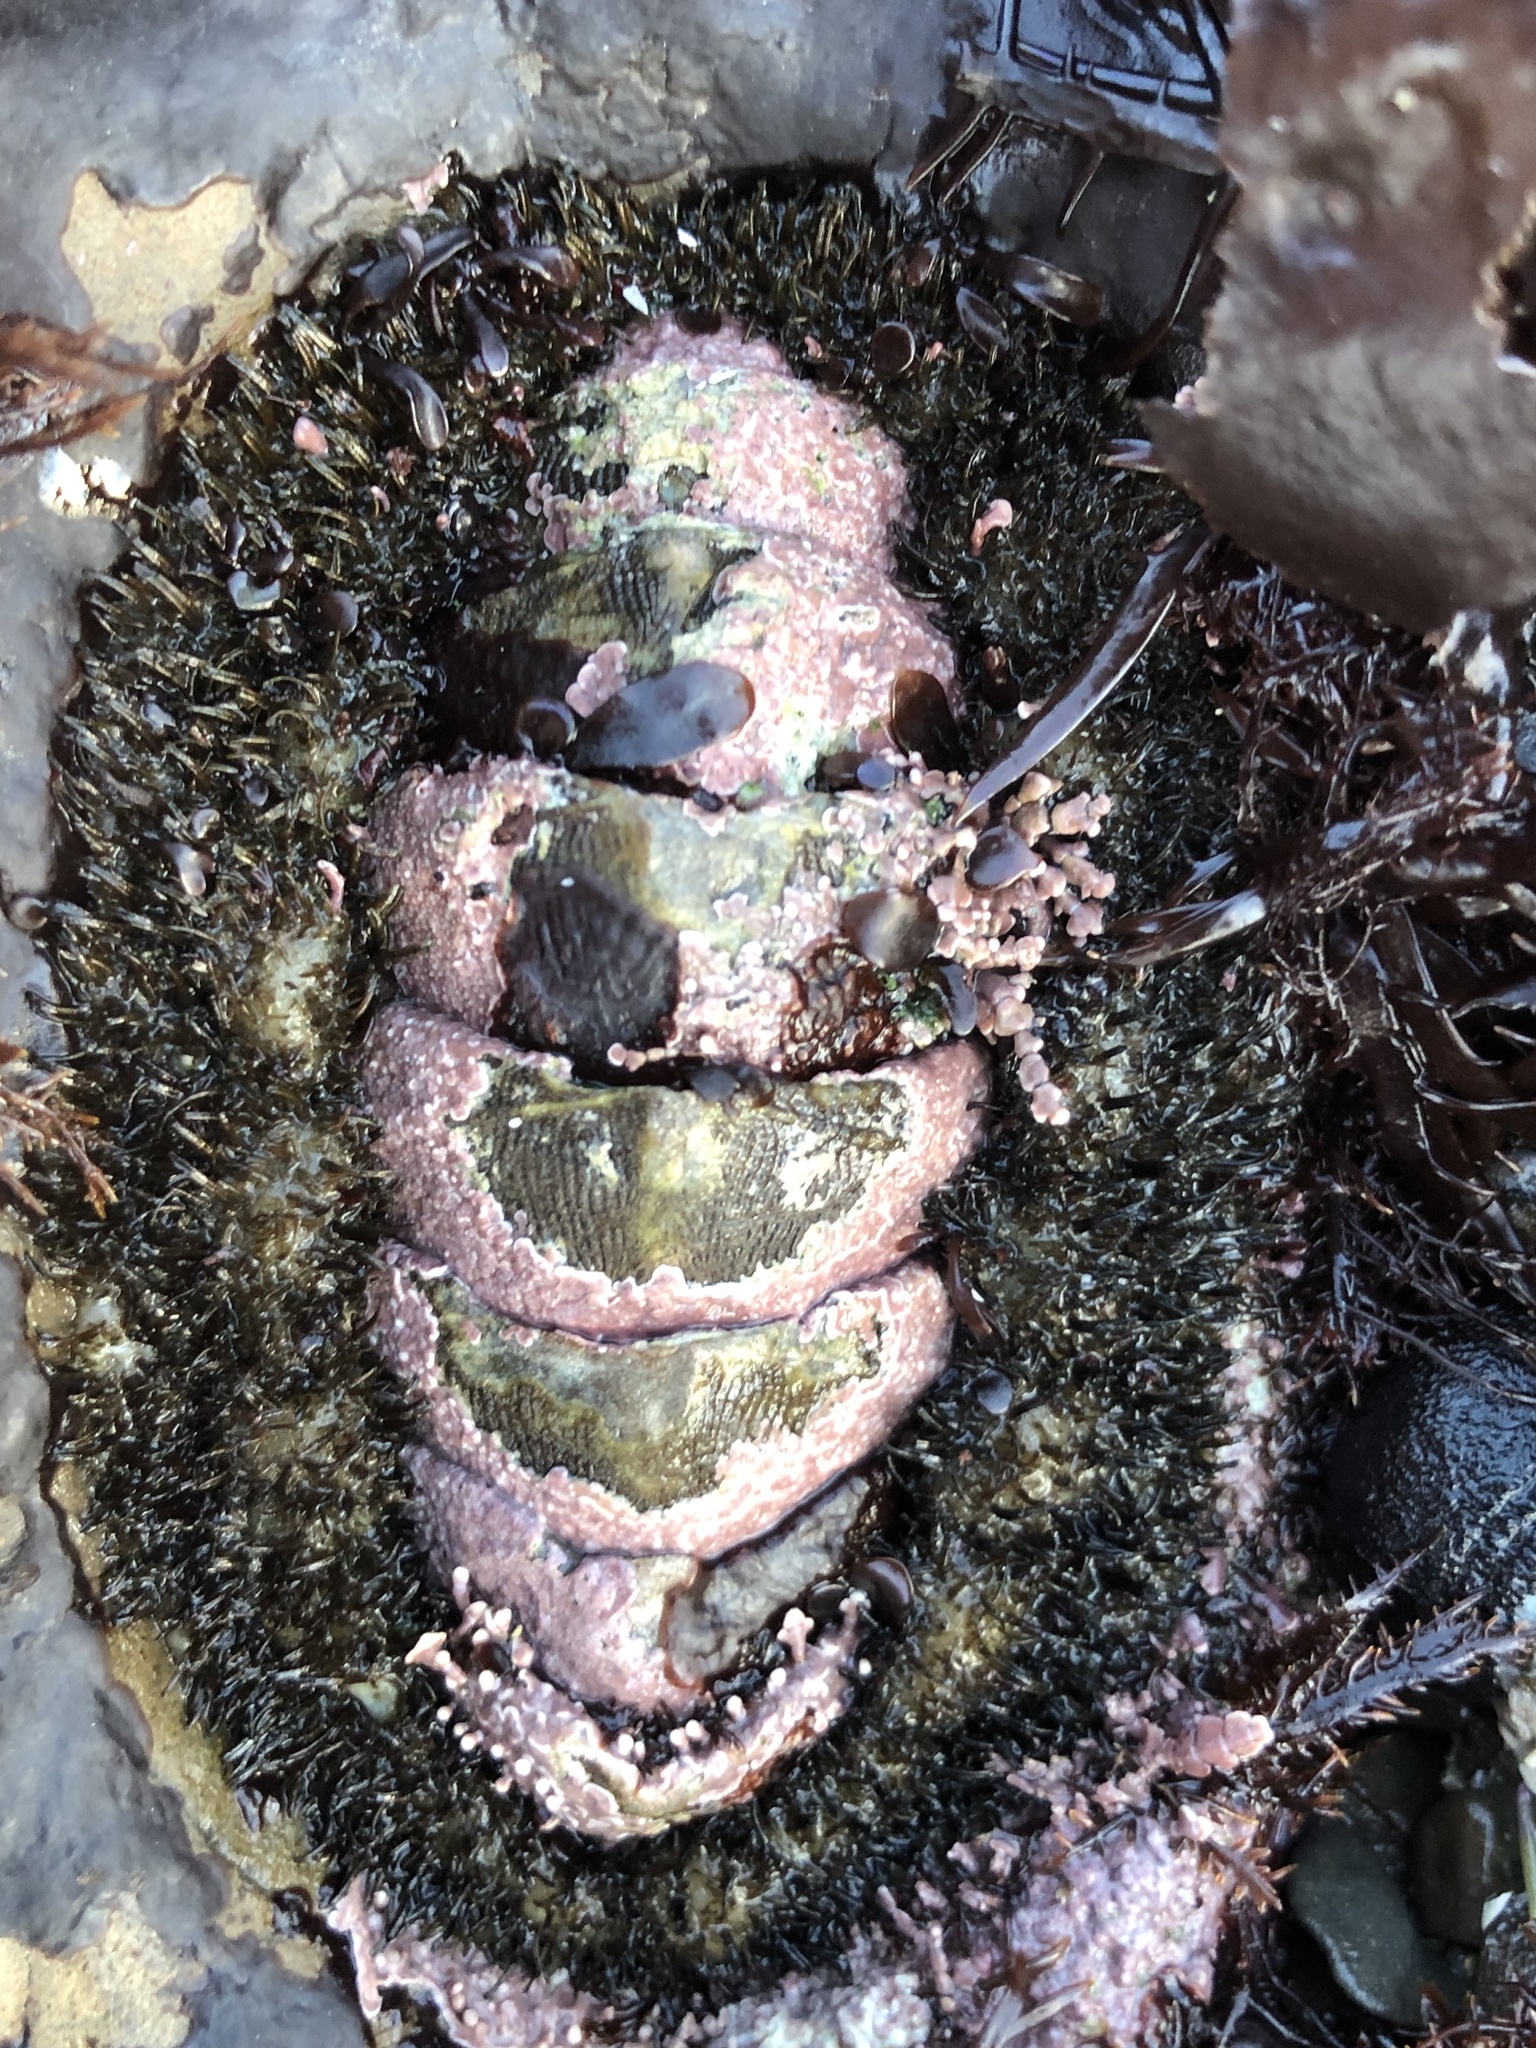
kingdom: Animalia
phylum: Mollusca
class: Polyplacophora
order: Chitonida
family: Mopaliidae
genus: Mopalia
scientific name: Mopalia muscosa
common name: Mossy chiton
